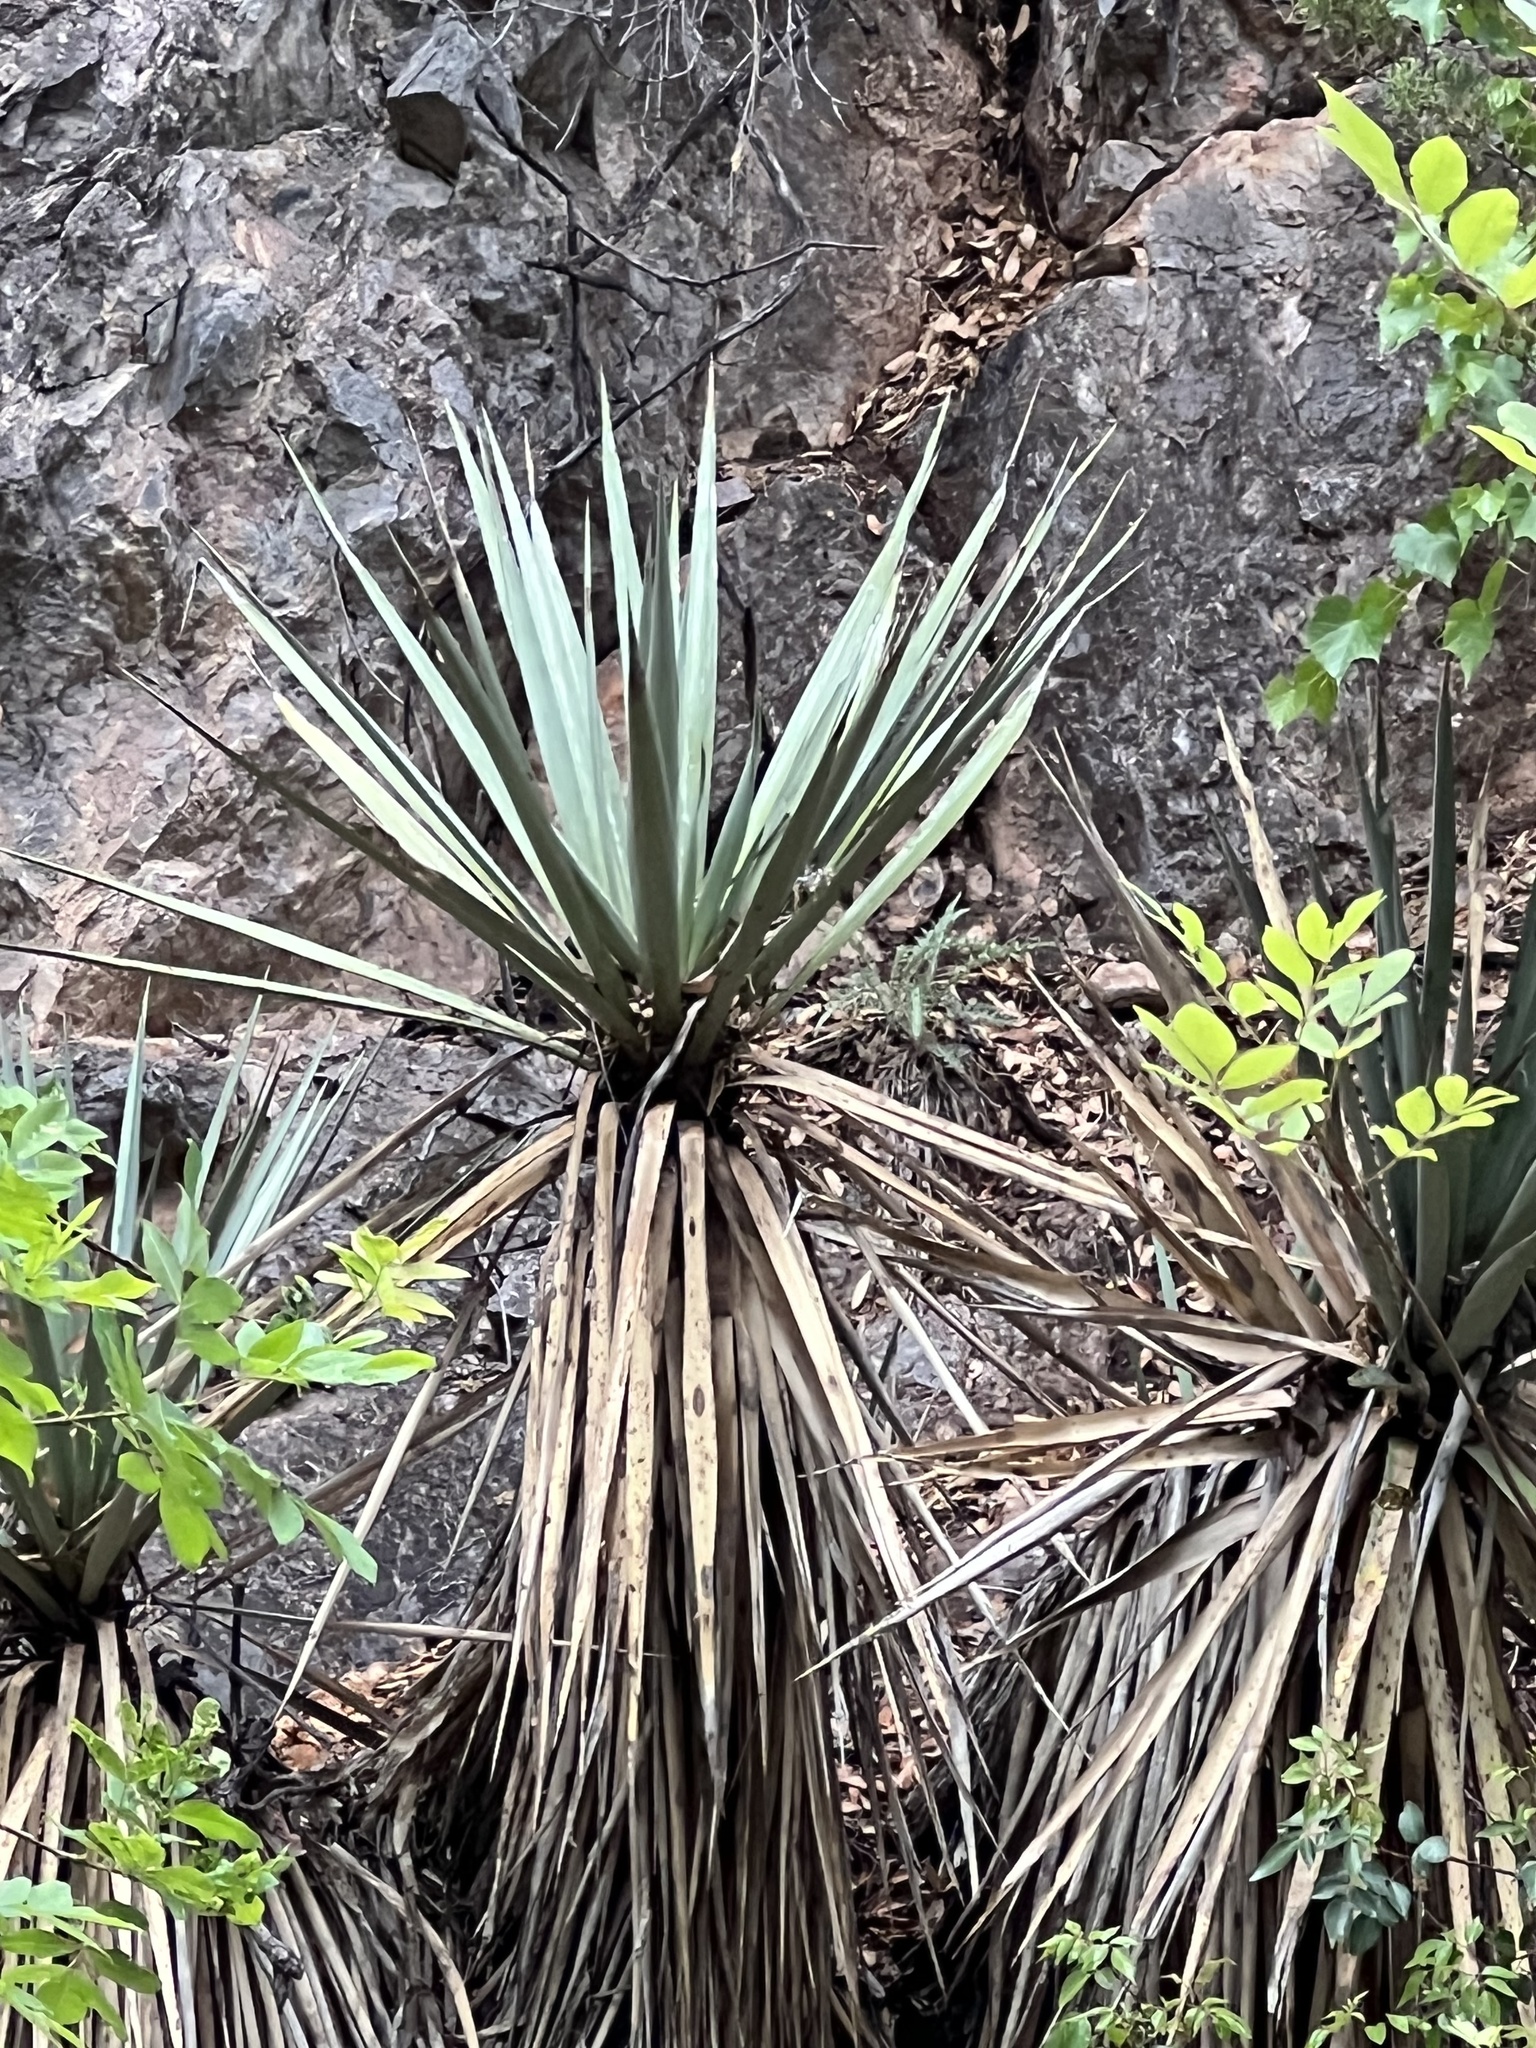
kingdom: Plantae
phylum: Tracheophyta
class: Liliopsida
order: Asparagales
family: Asparagaceae
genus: Yucca
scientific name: Yucca schottii
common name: Hoary yucca
